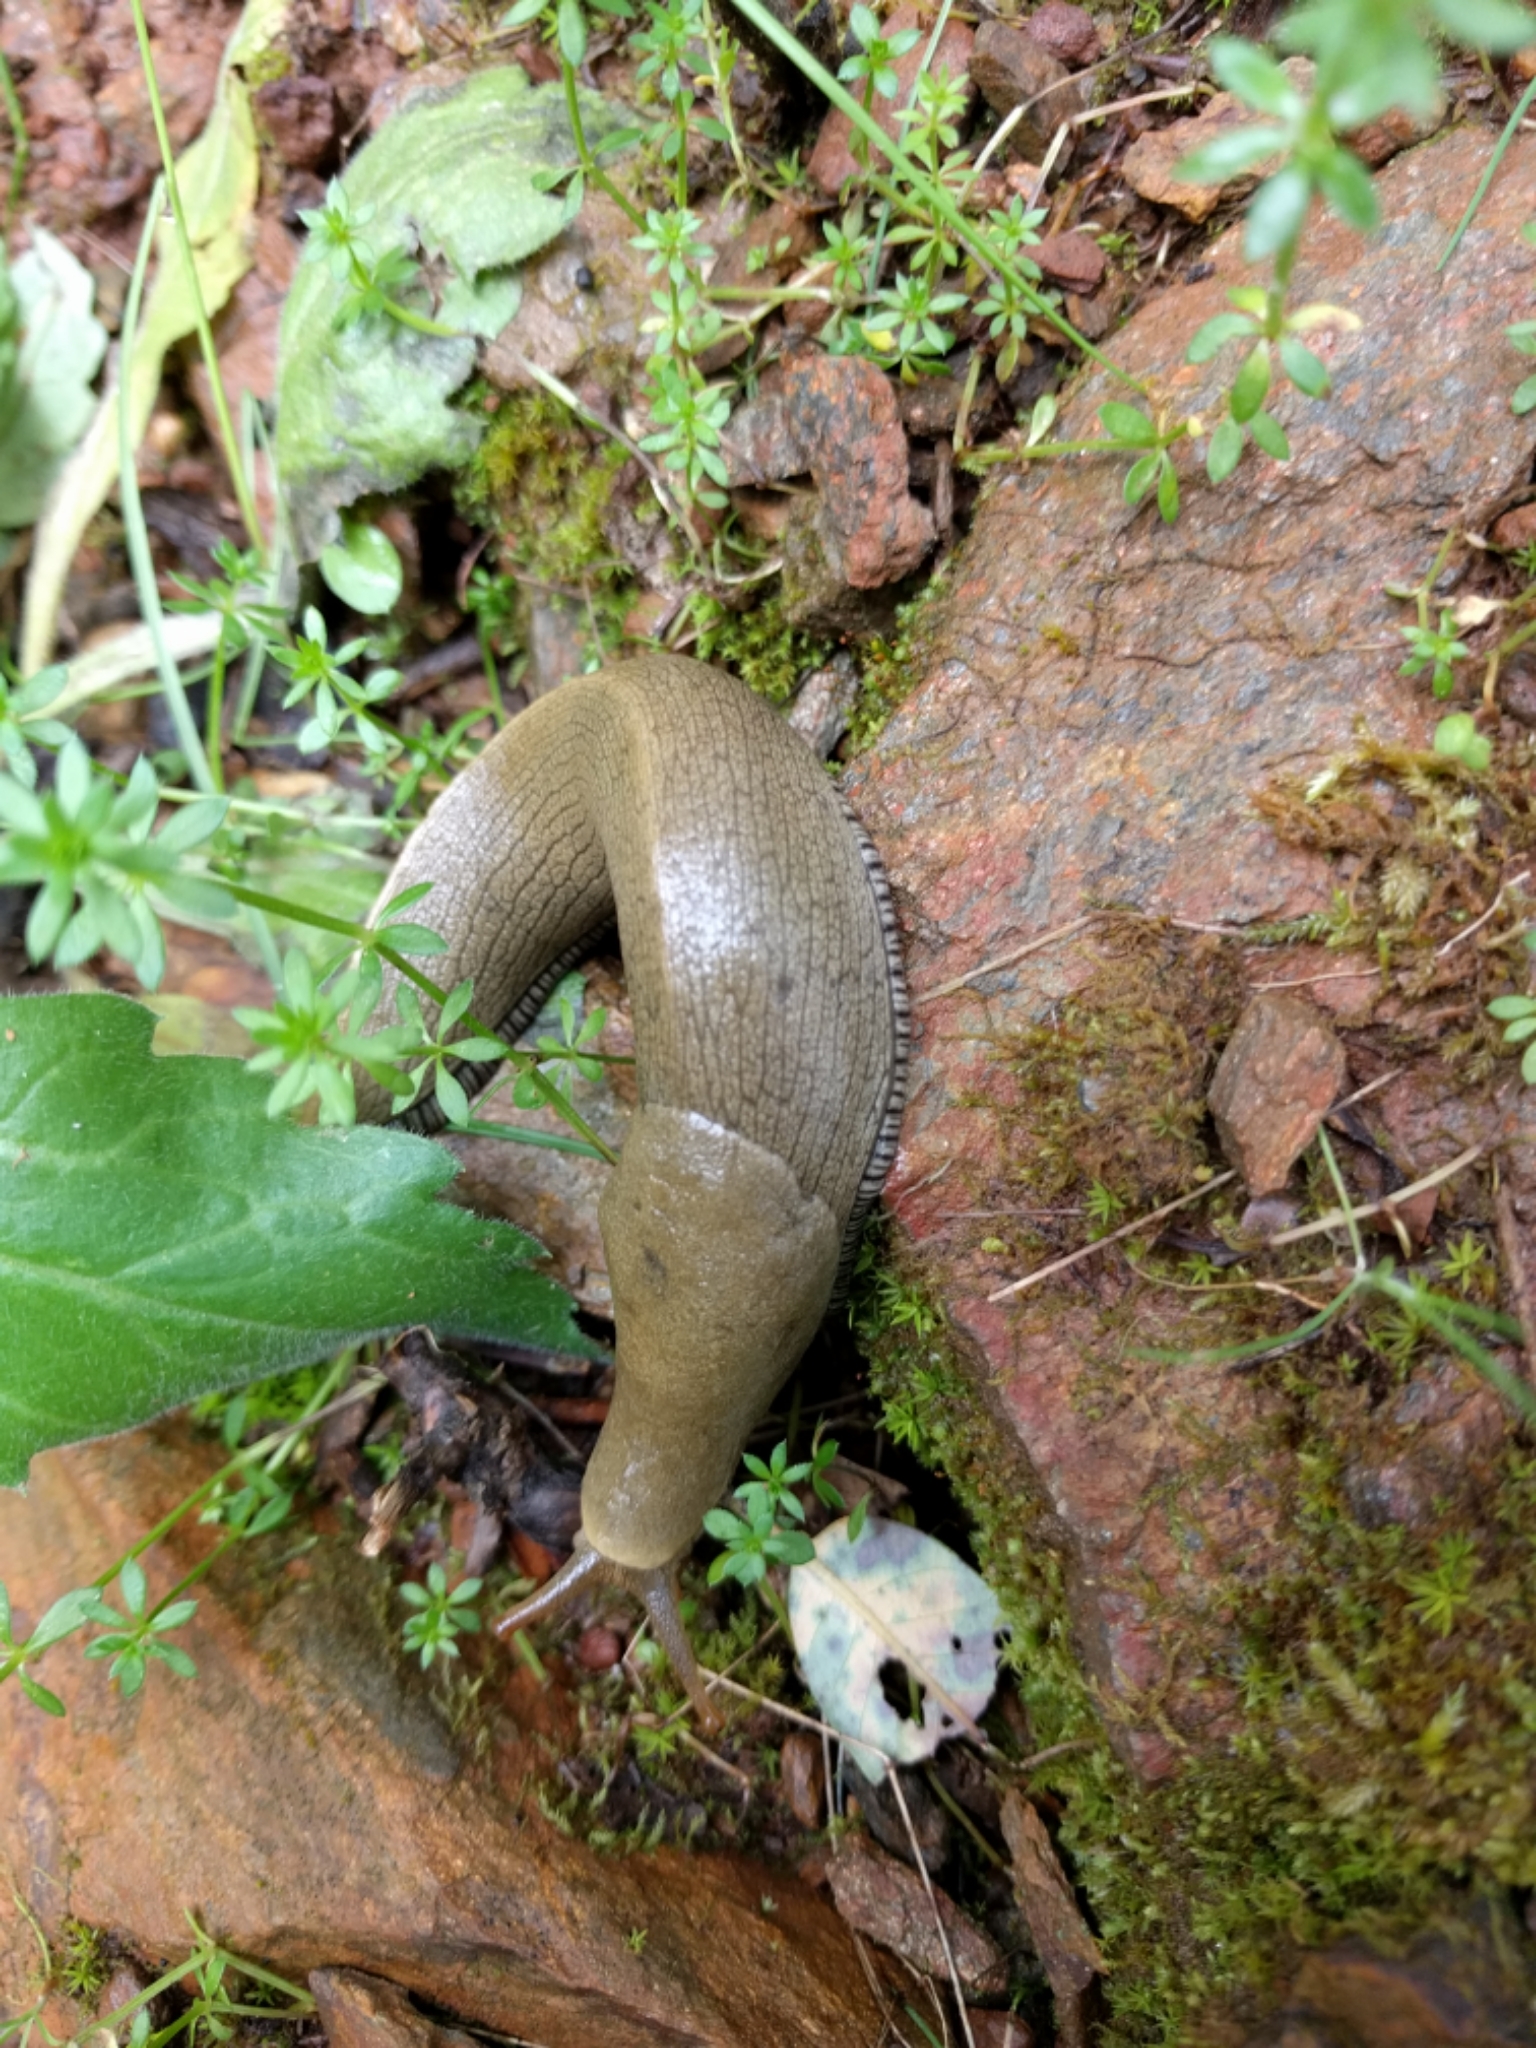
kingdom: Animalia
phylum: Mollusca
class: Gastropoda
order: Stylommatophora
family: Ariolimacidae
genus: Ariolimax
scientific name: Ariolimax buttoni
